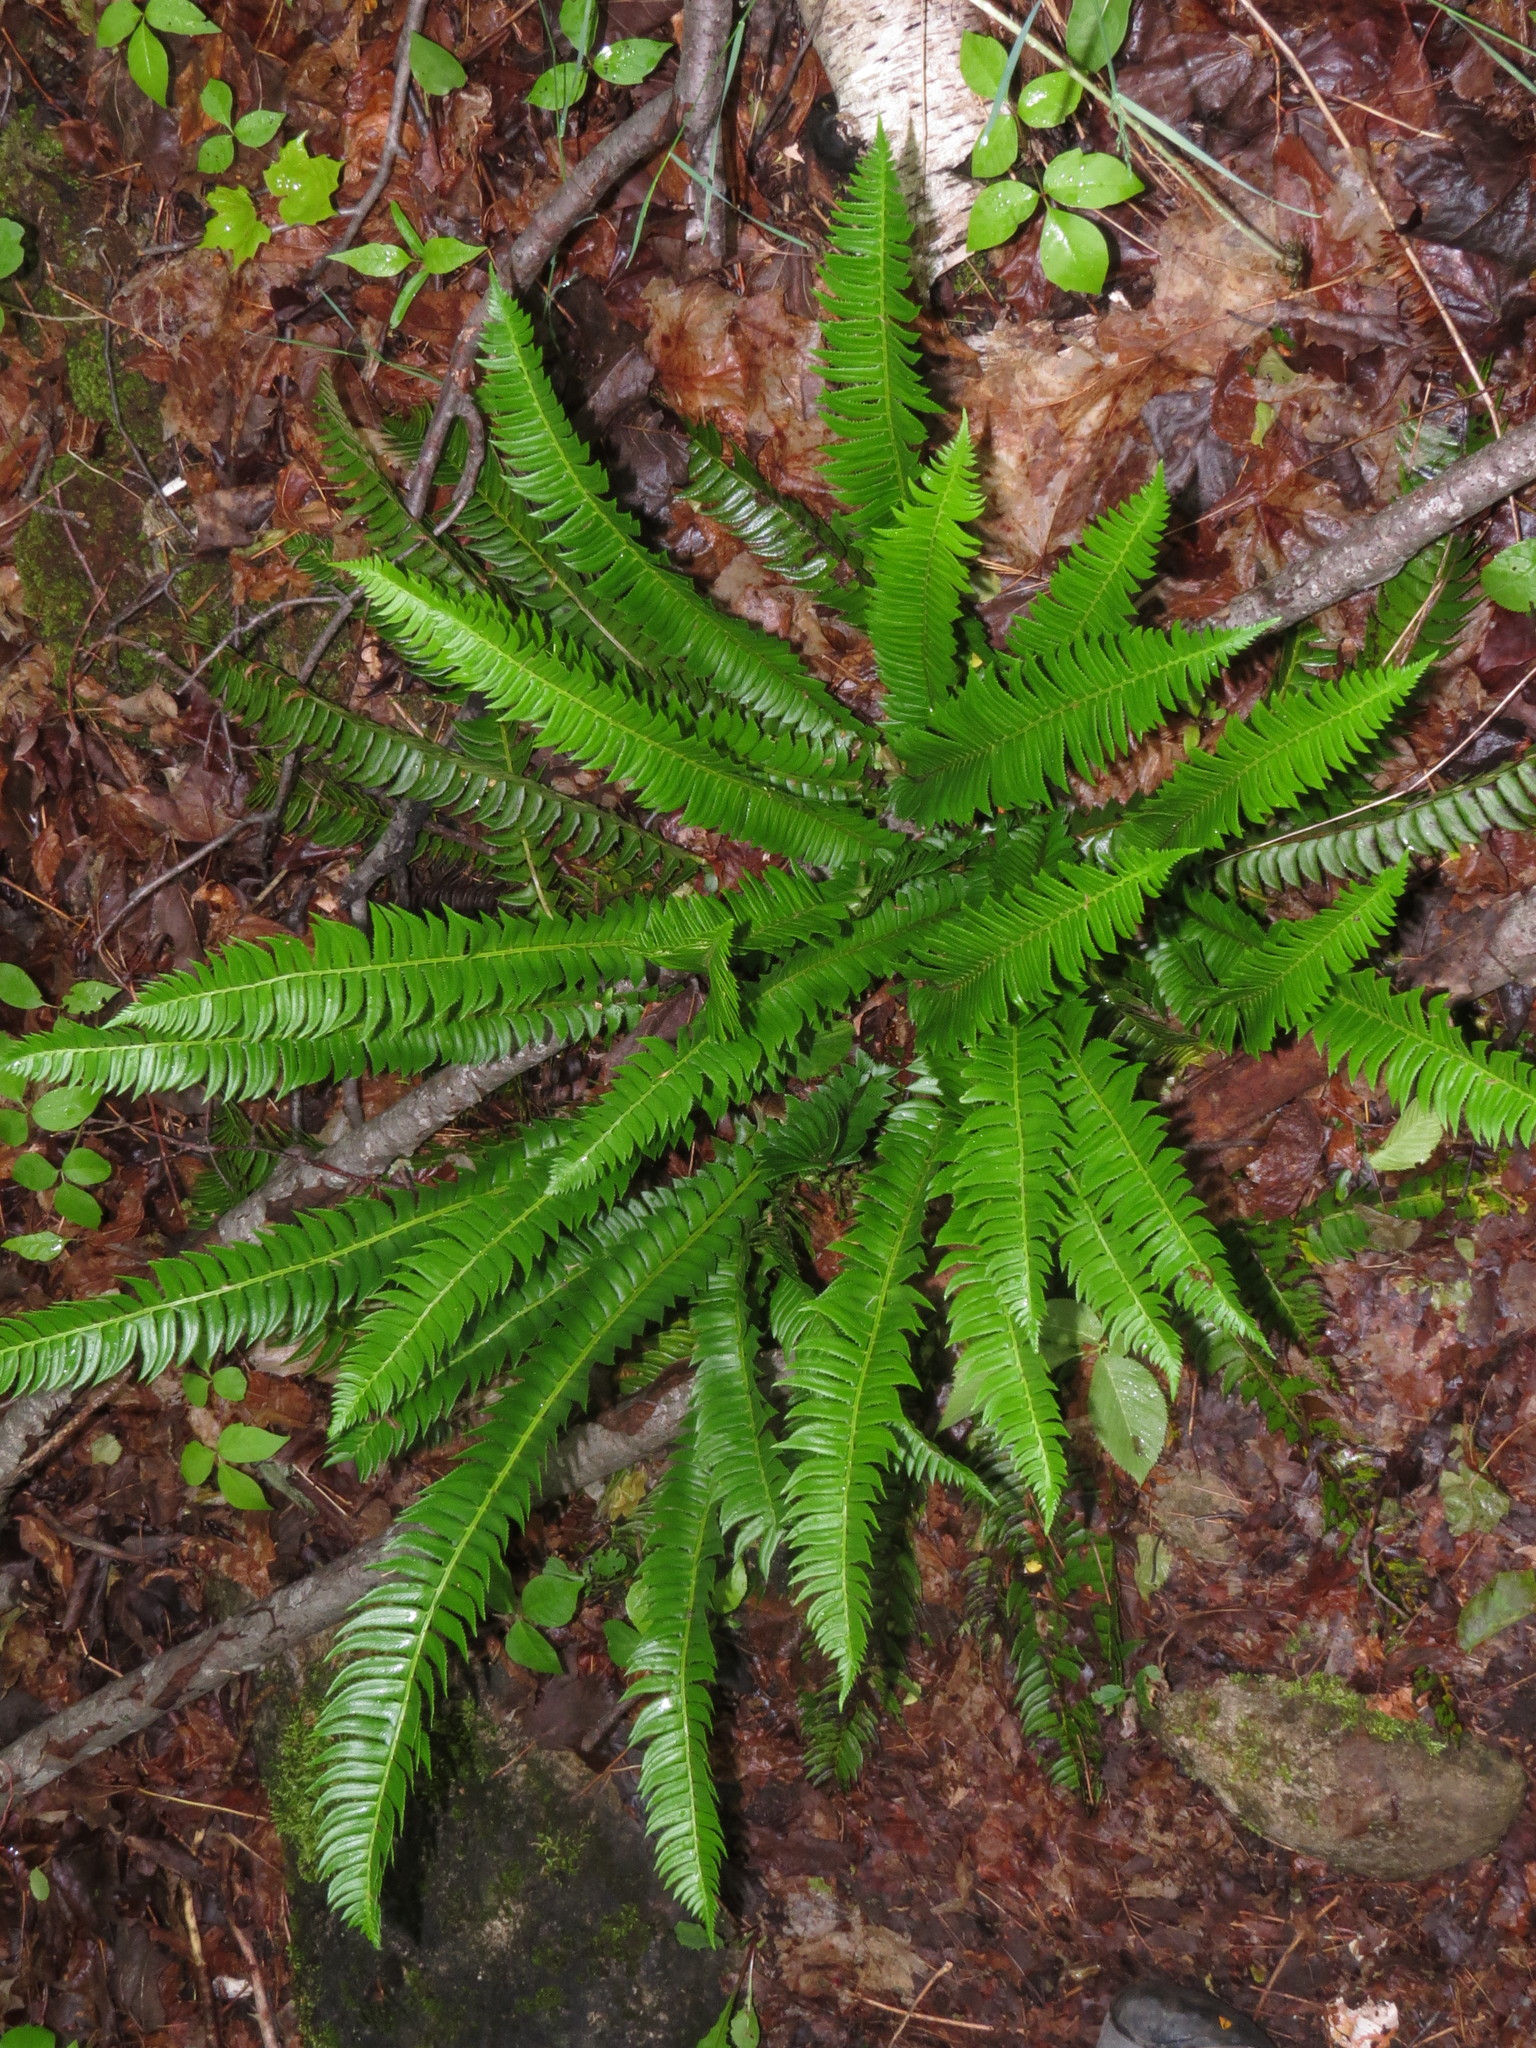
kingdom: Plantae
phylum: Tracheophyta
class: Polypodiopsida
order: Polypodiales
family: Dryopteridaceae
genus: Polystichum
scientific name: Polystichum lonchitis
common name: Holly fern
